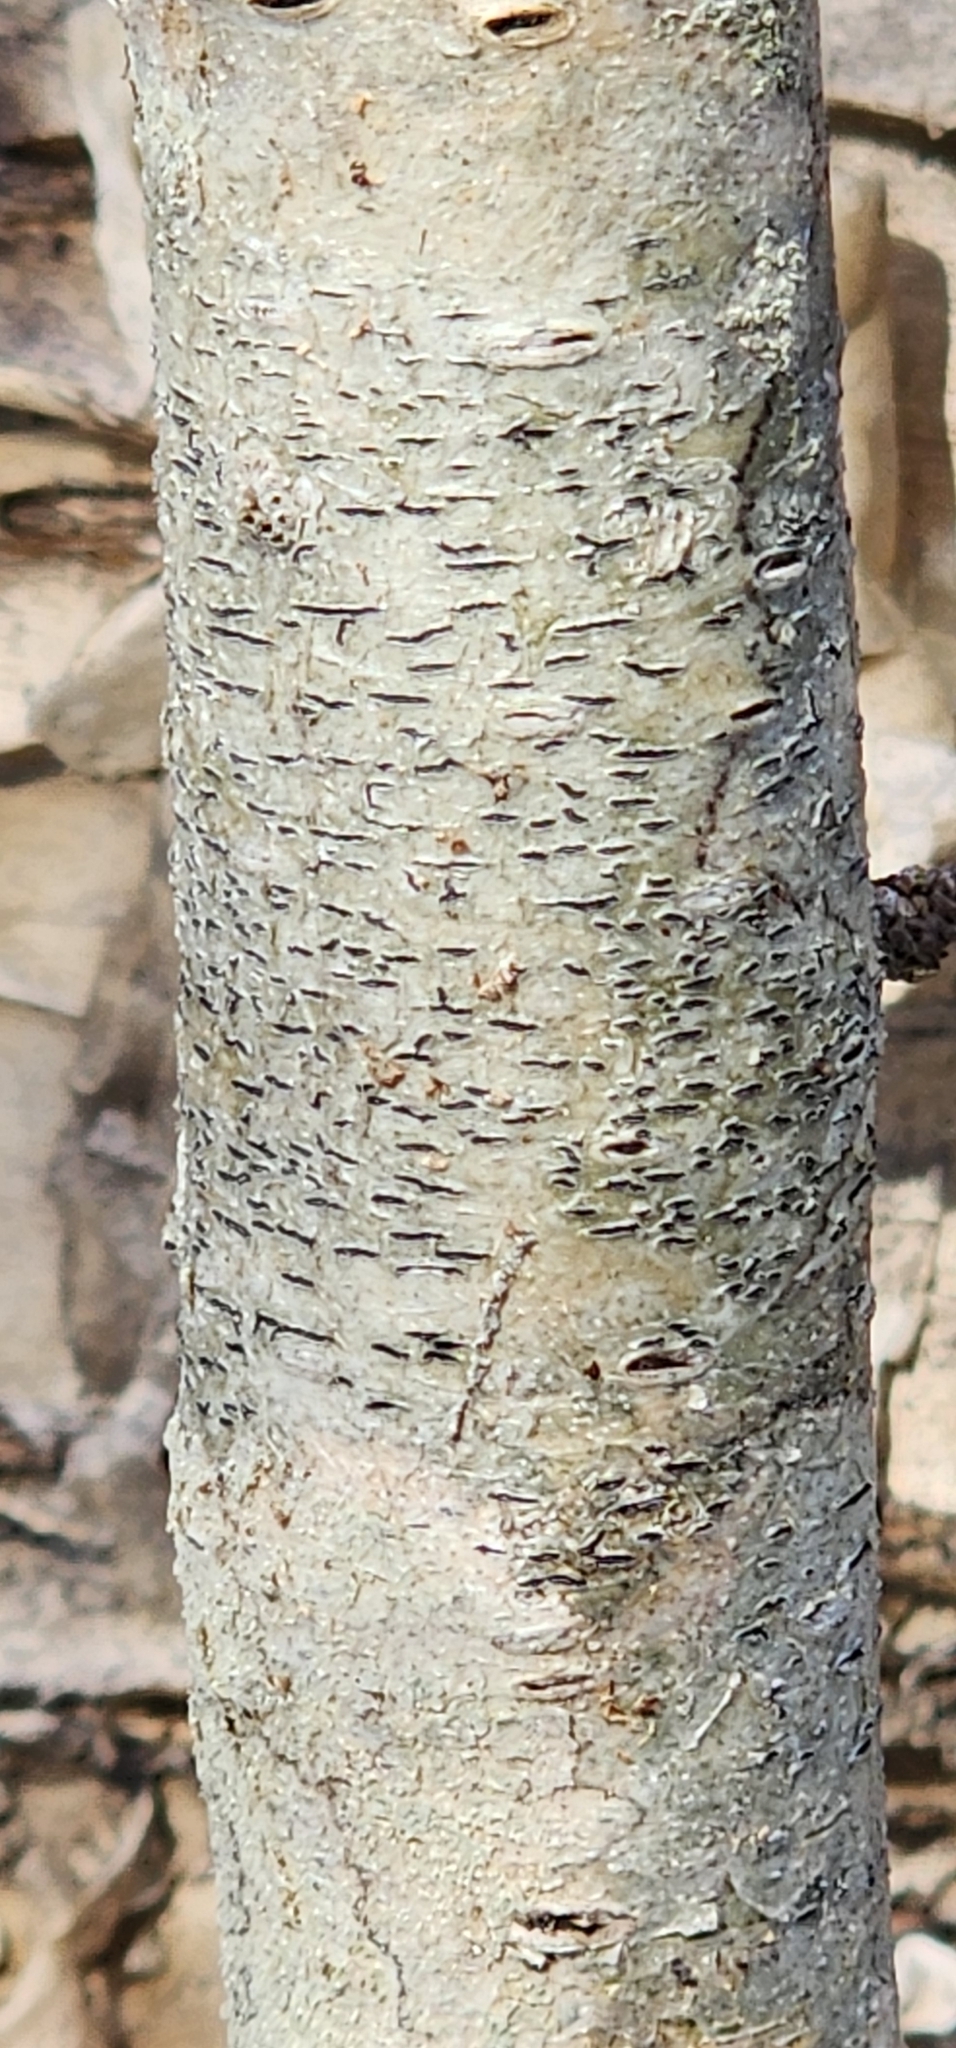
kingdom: Fungi
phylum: Ascomycota
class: Lecanoromycetes
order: Ostropales
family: Graphidaceae
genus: Graphis
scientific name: Graphis scripta
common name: Script lichen
